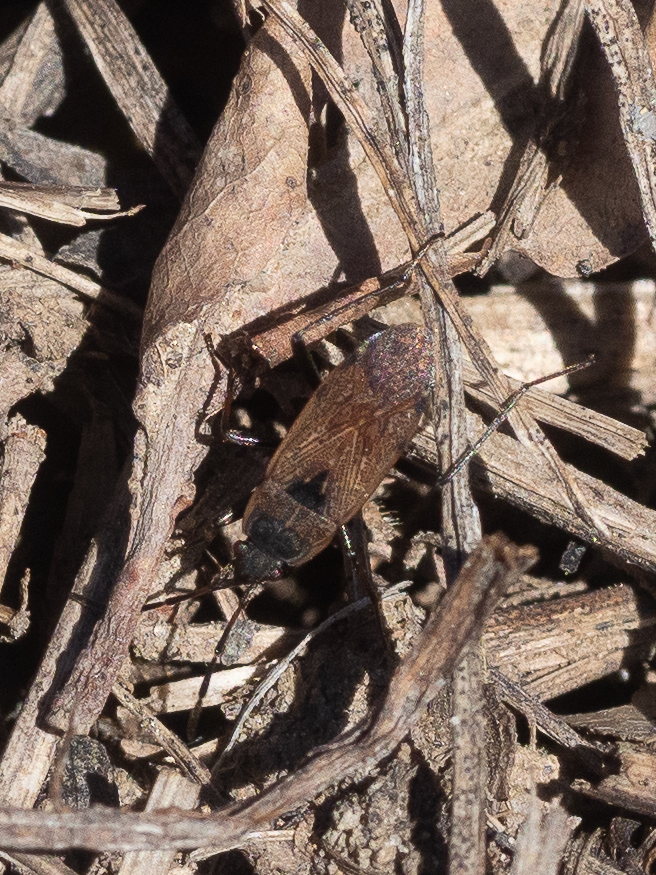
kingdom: Animalia
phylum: Arthropoda
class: Insecta
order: Hemiptera
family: Rhyparochromidae
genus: Panaorus
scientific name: Panaorus adspersus
